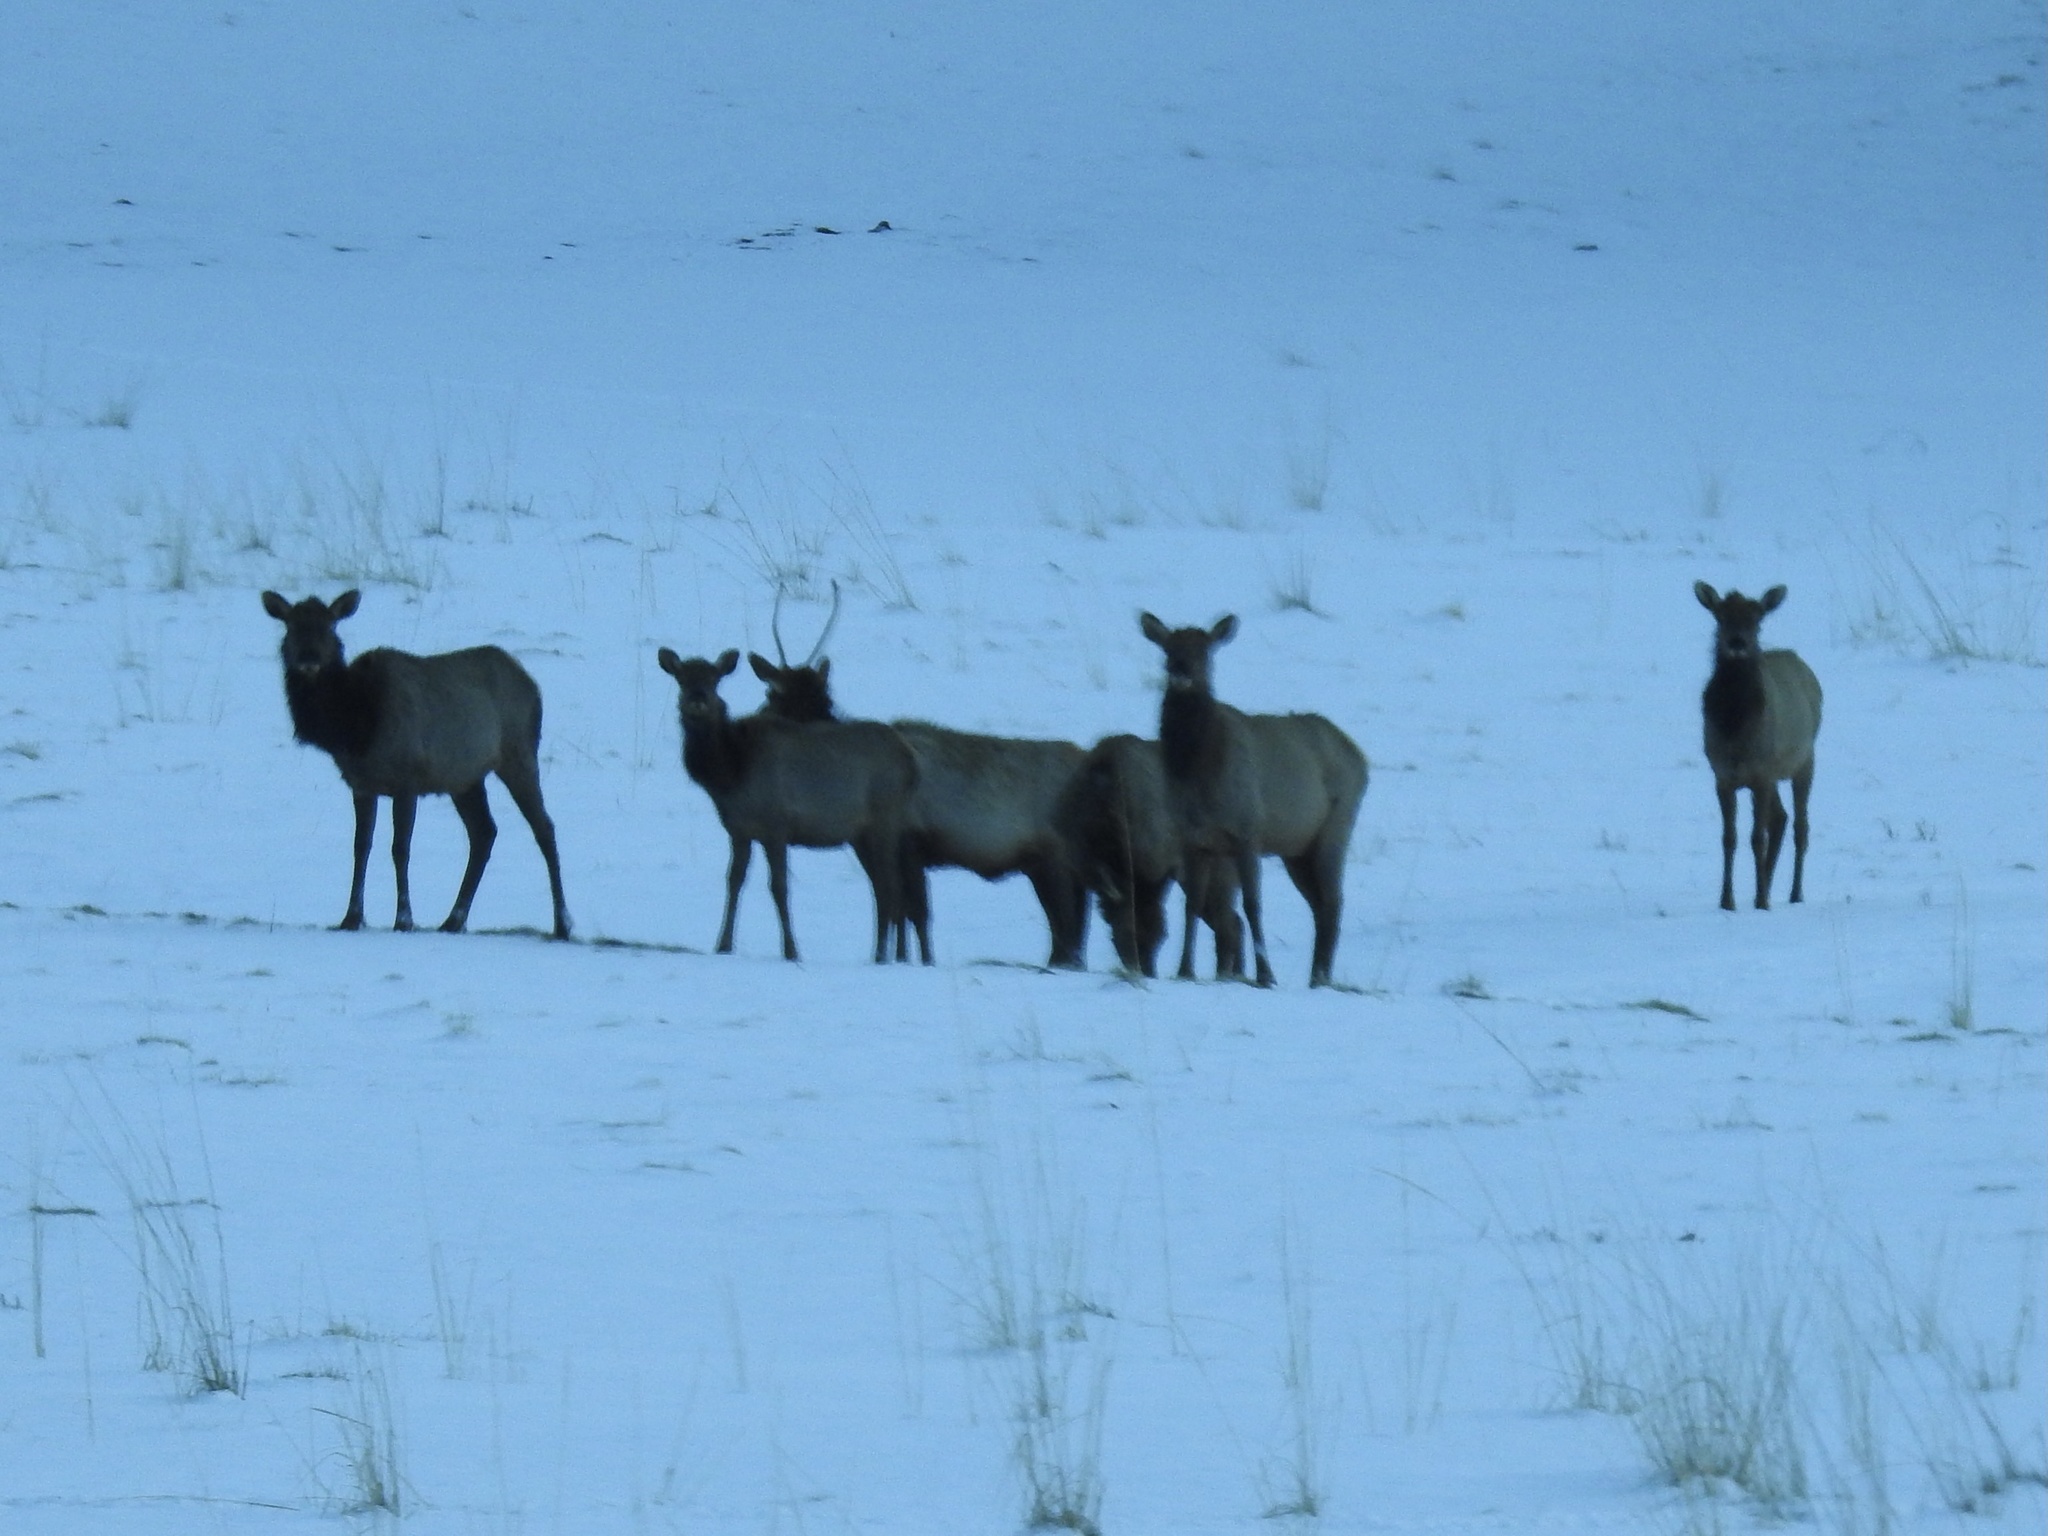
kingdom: Animalia
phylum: Chordata
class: Mammalia
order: Artiodactyla
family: Cervidae
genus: Cervus
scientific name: Cervus elaphus
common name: Red deer
